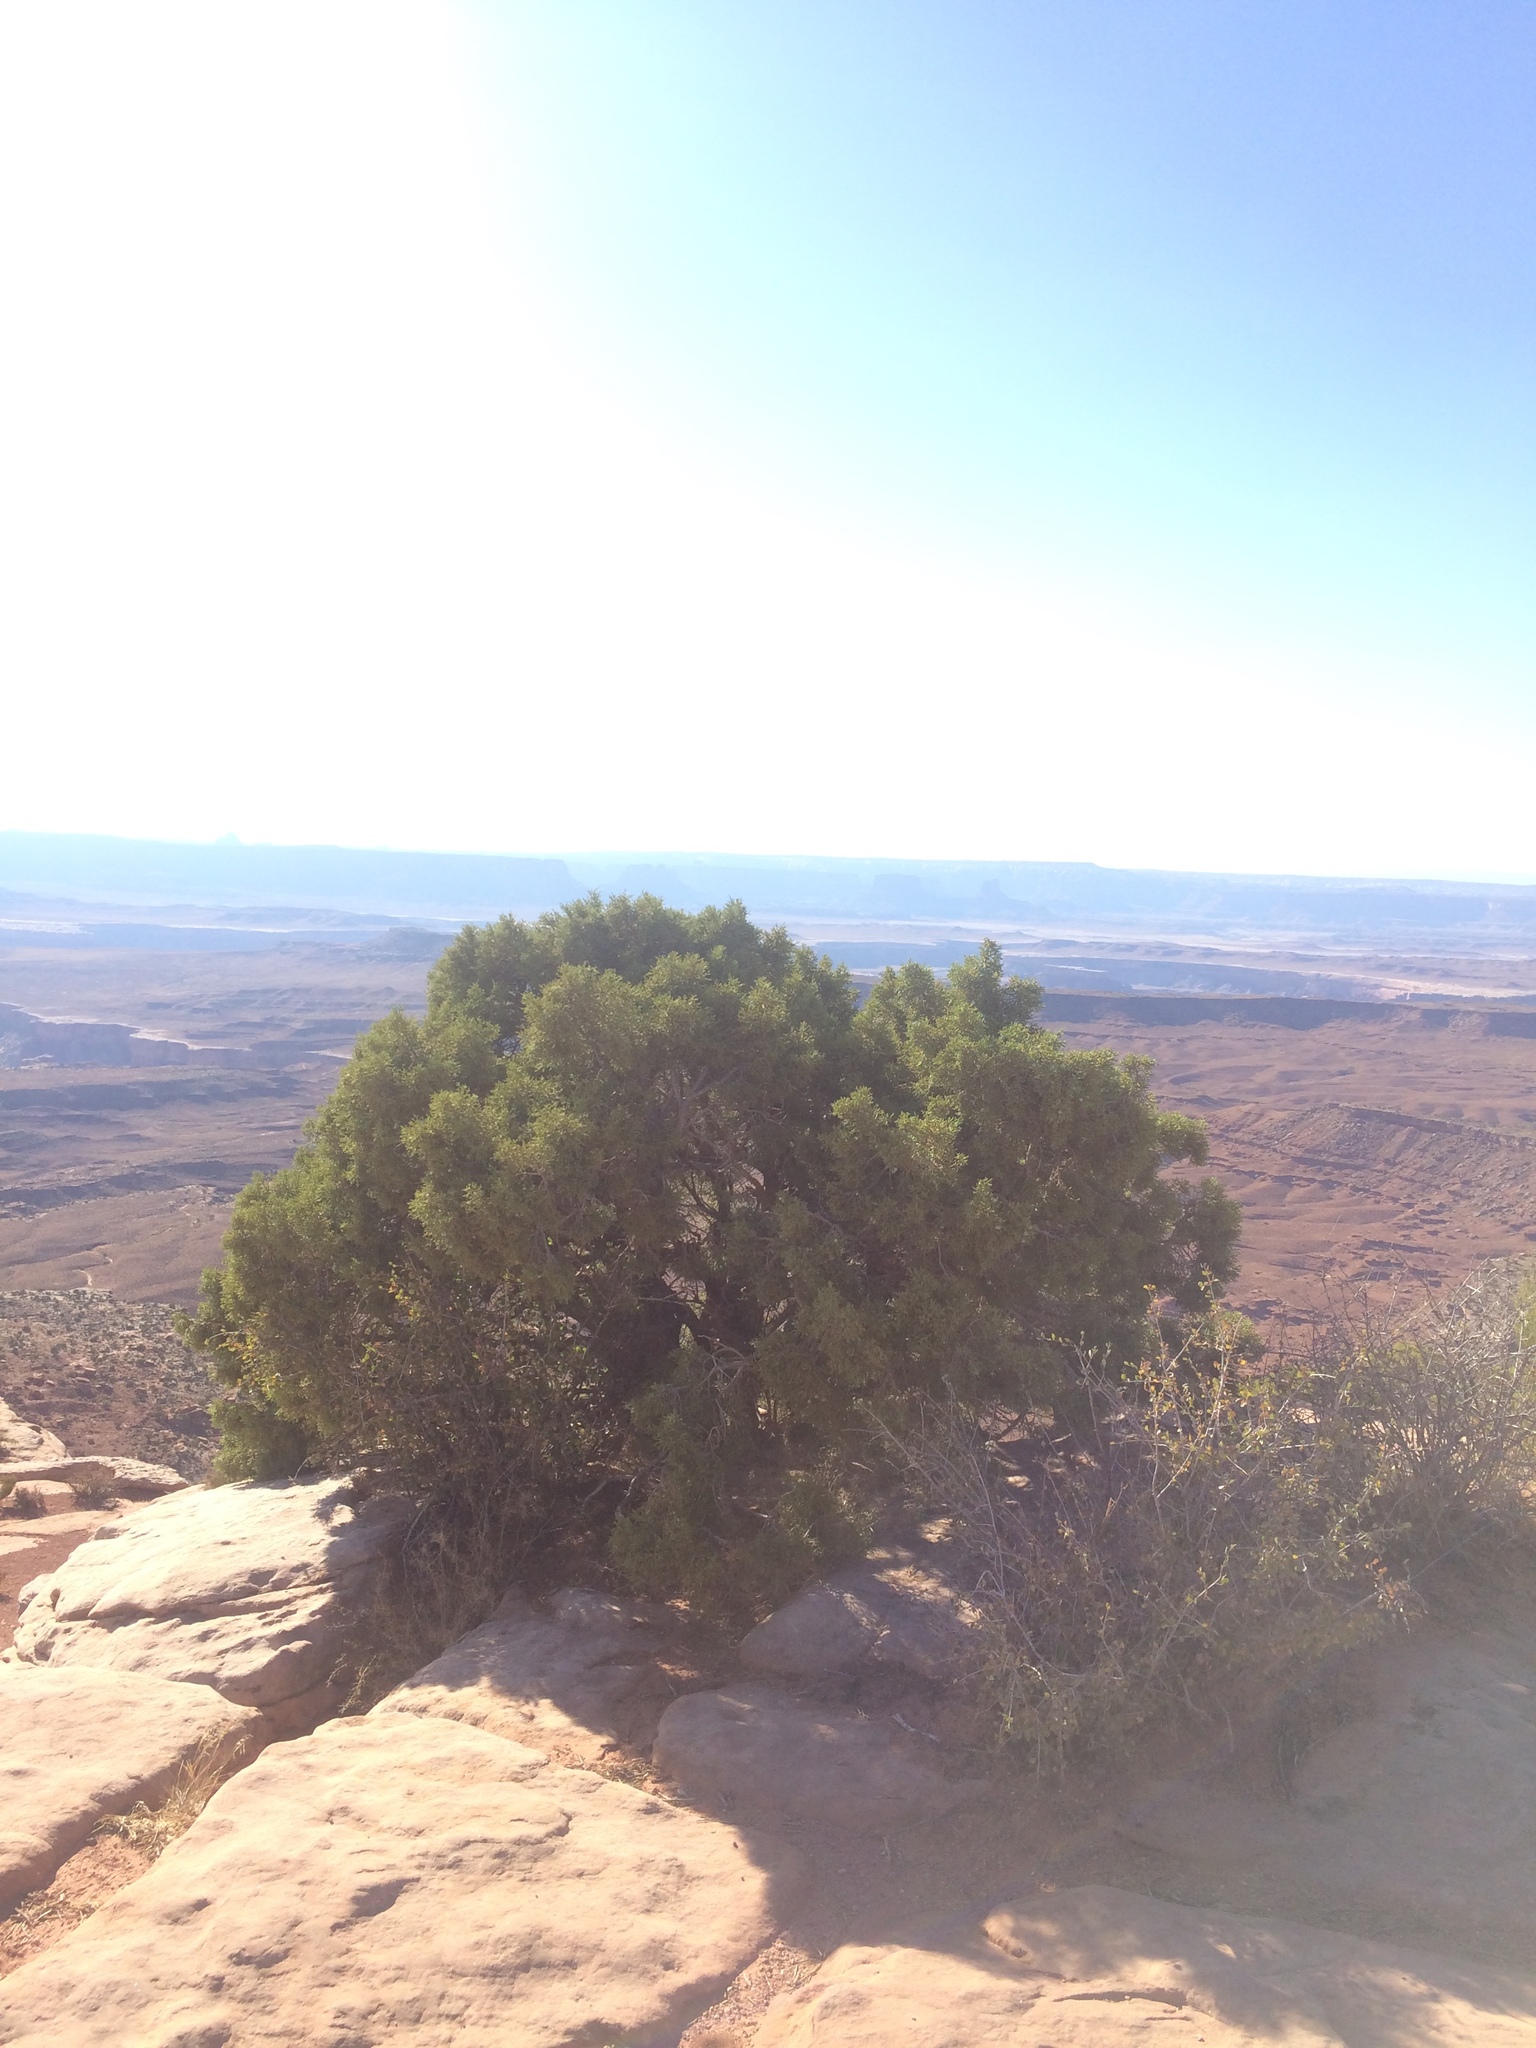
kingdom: Plantae
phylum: Tracheophyta
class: Pinopsida
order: Pinales
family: Cupressaceae
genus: Juniperus
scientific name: Juniperus osteosperma
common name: Utah juniper
